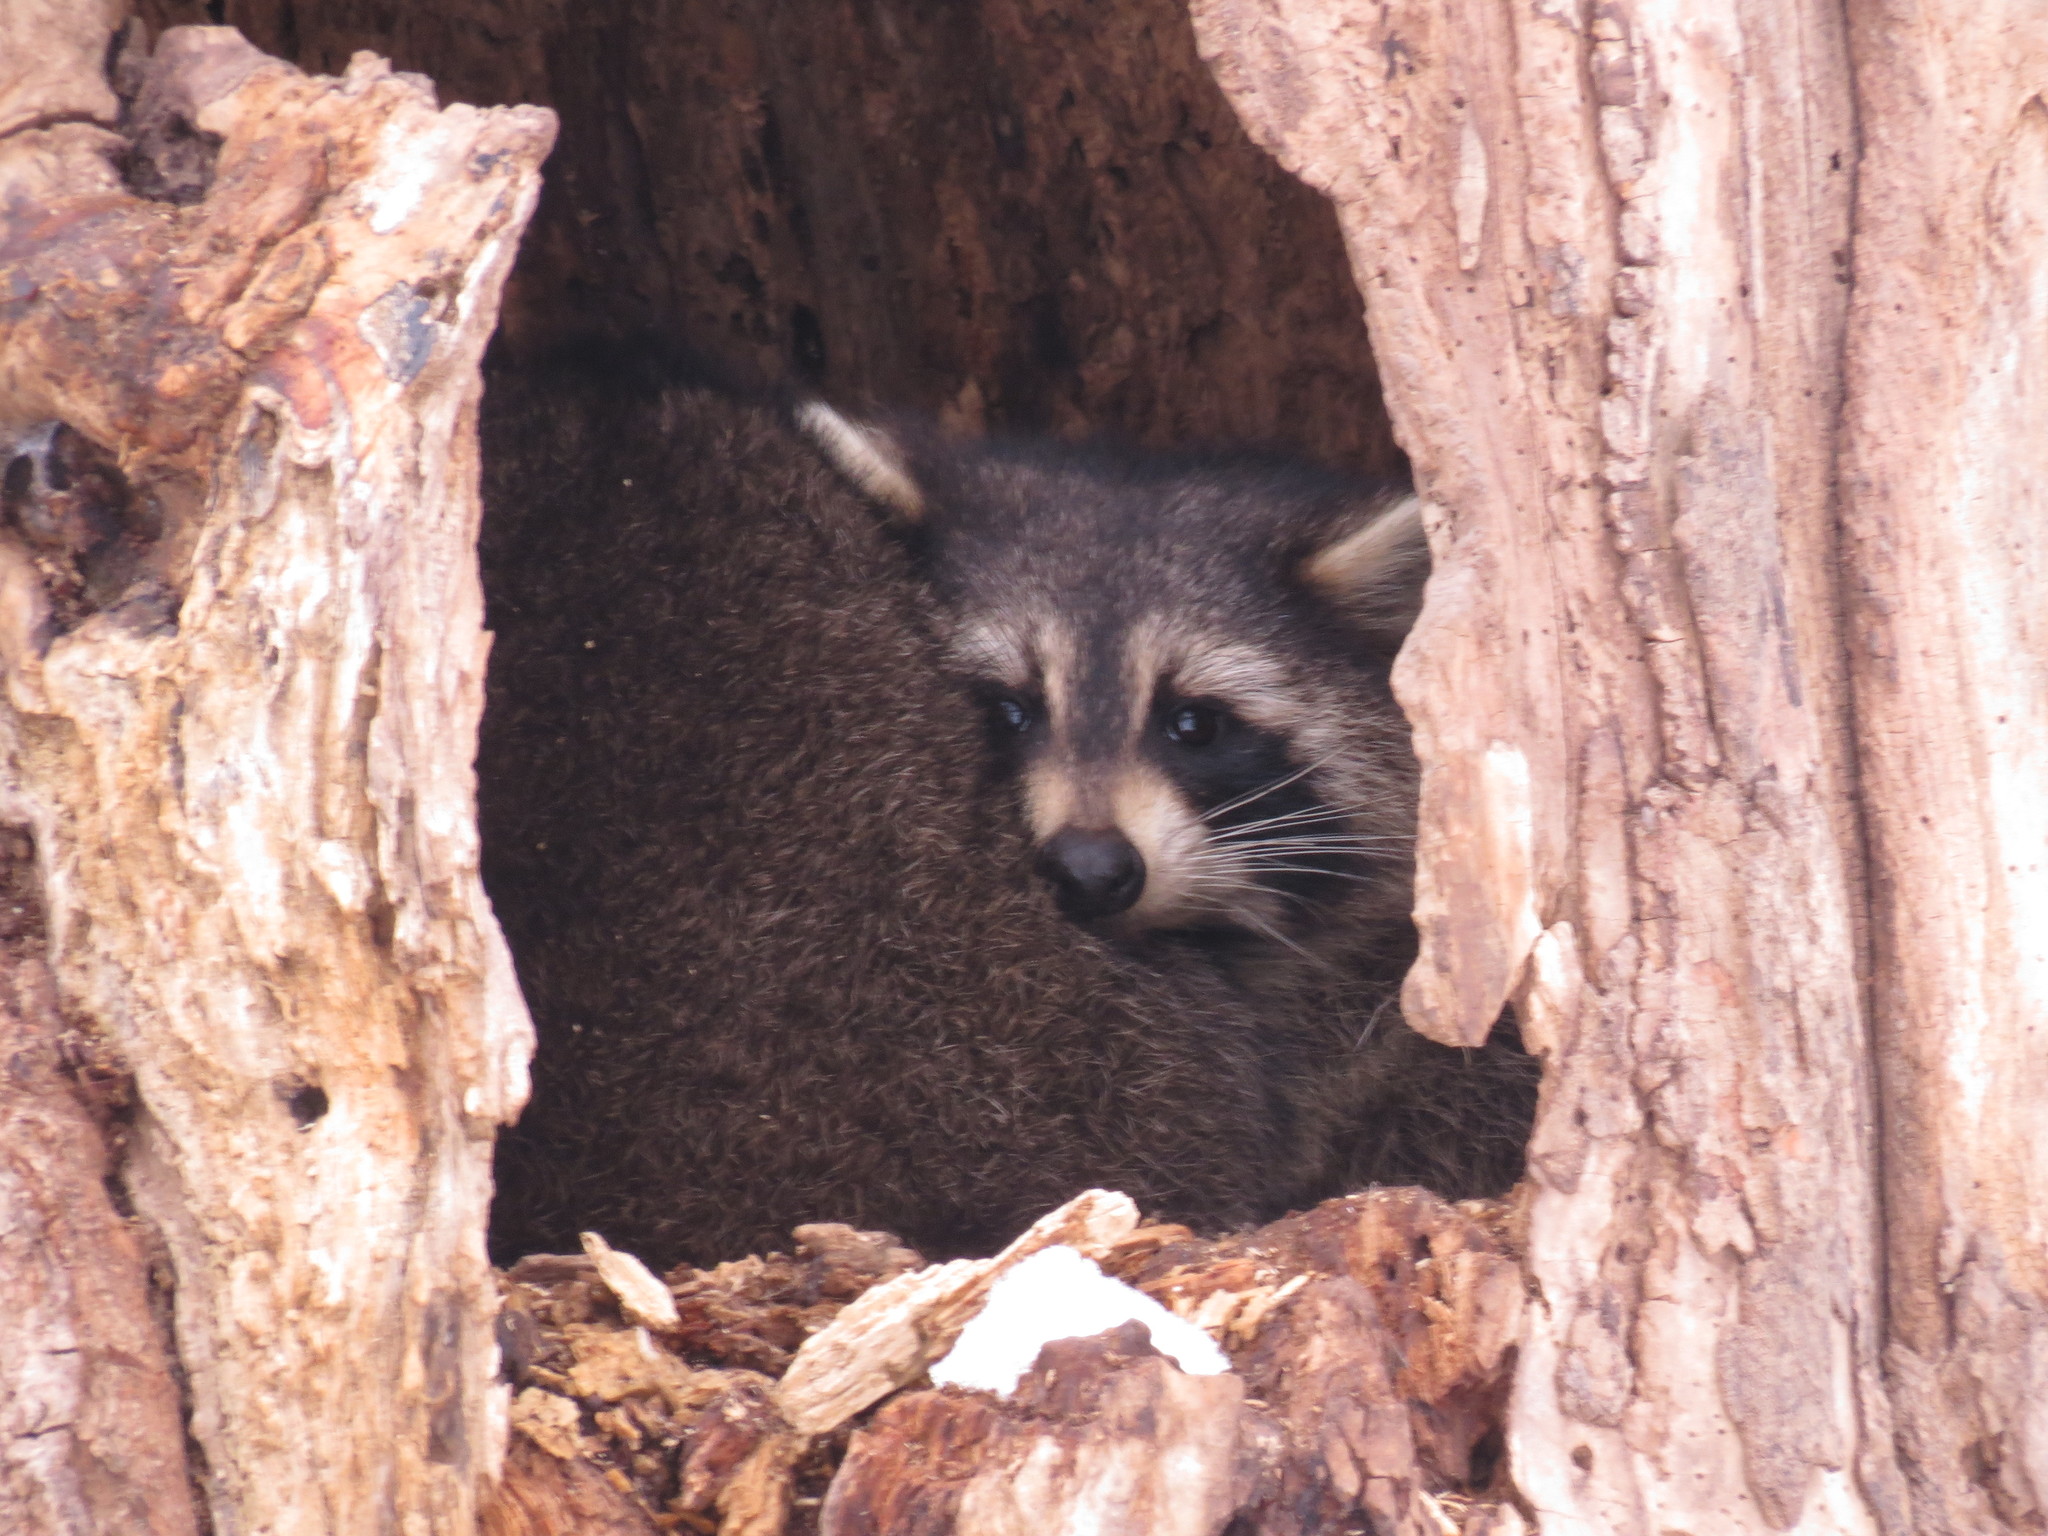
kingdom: Animalia
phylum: Chordata
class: Mammalia
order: Carnivora
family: Procyonidae
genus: Procyon
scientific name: Procyon lotor
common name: Raccoon
